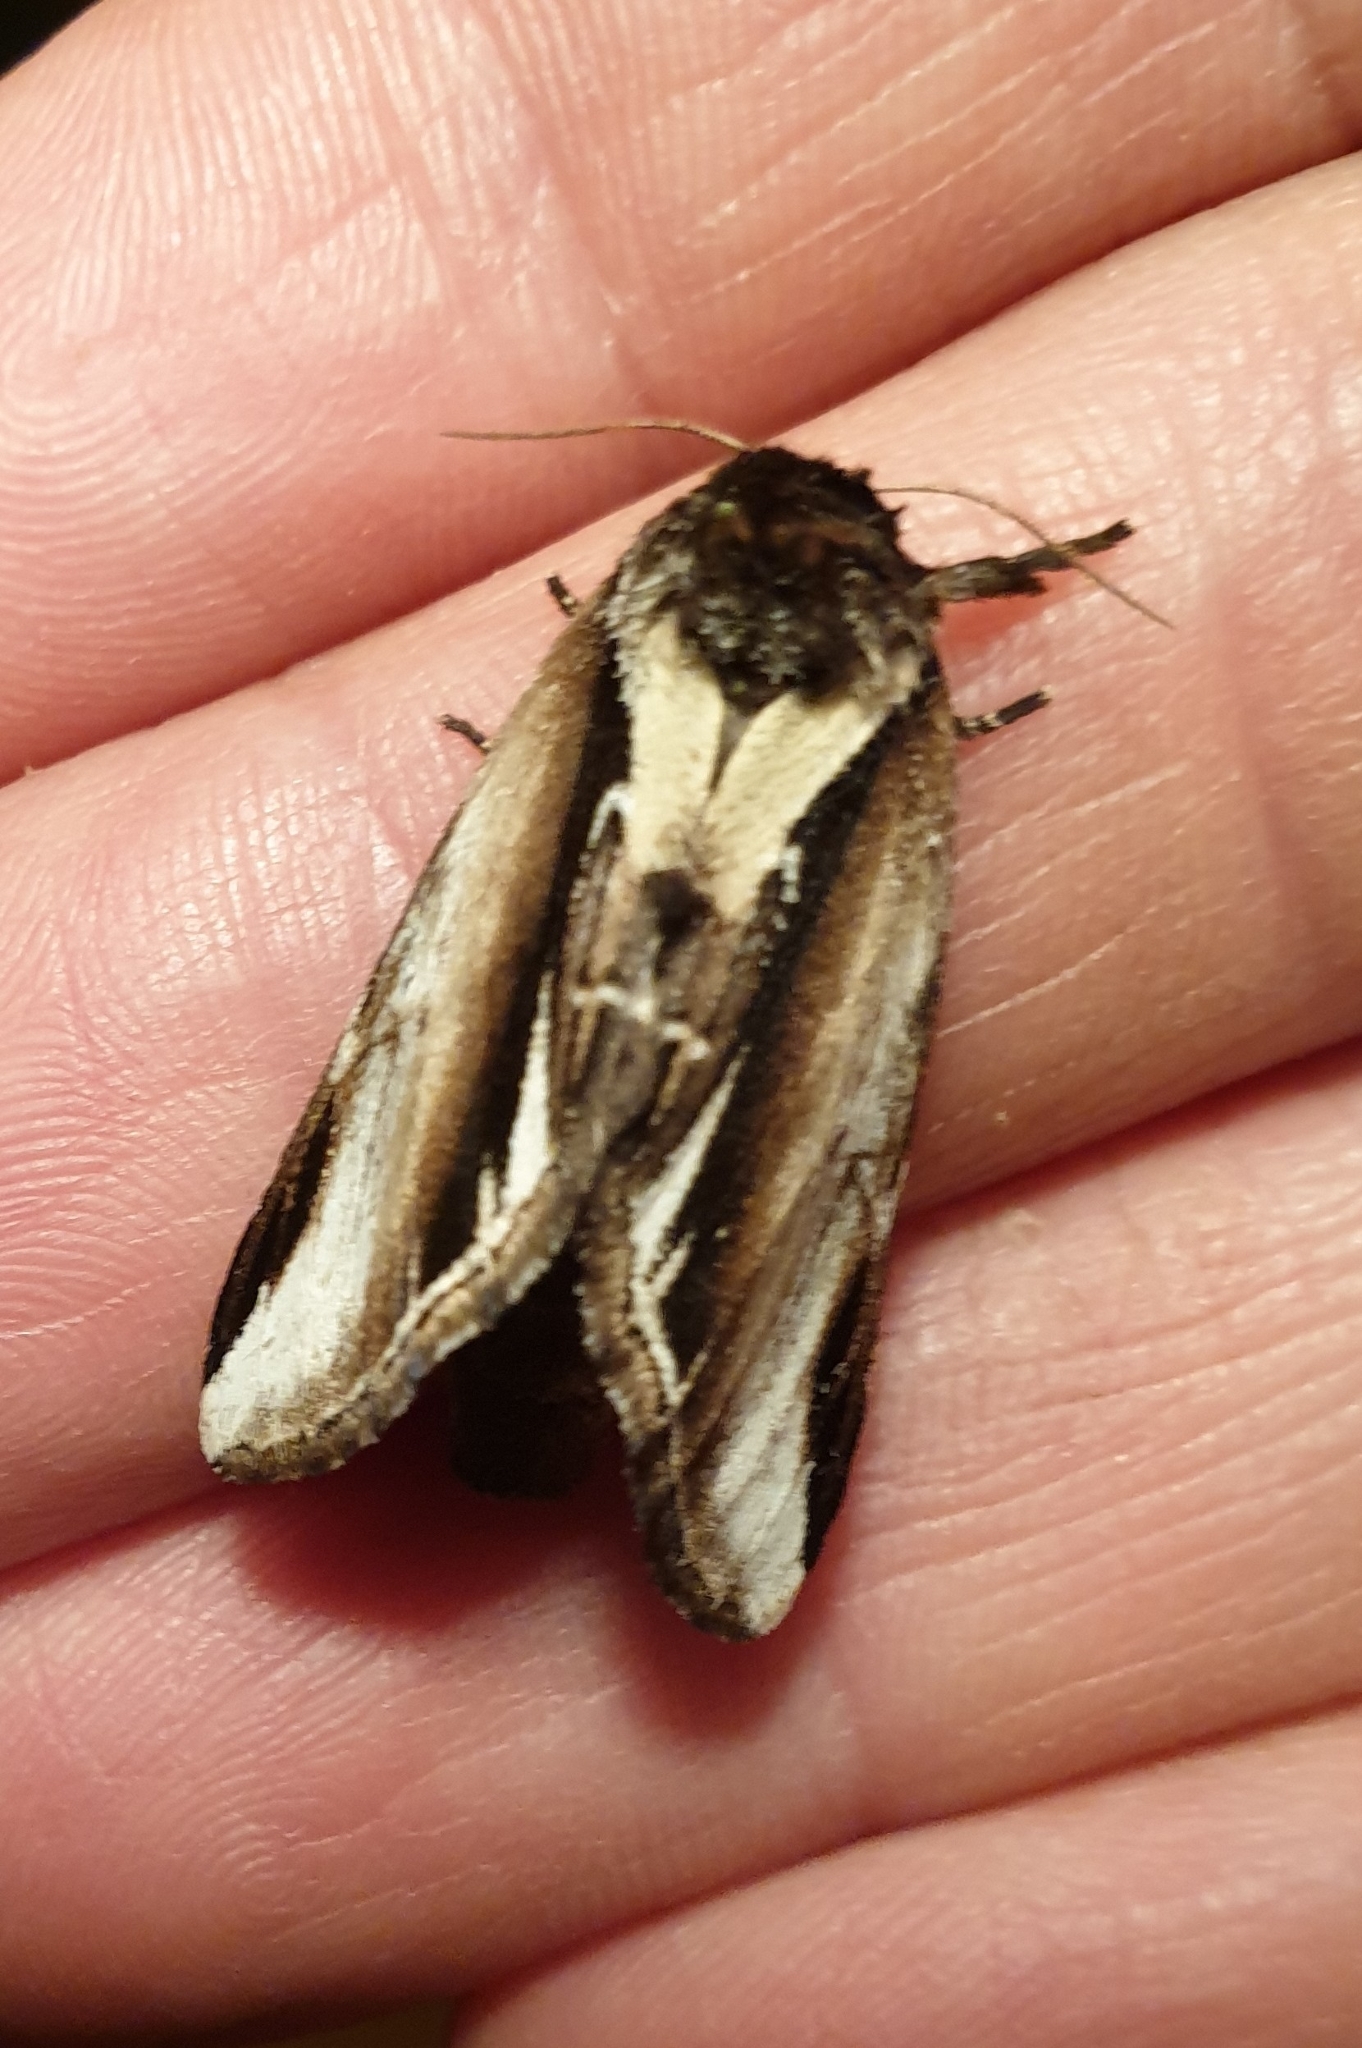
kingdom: Animalia
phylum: Arthropoda
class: Insecta
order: Lepidoptera
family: Notodontidae
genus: Pheosia
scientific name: Pheosia gnoma
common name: Lesser swallow prominent
